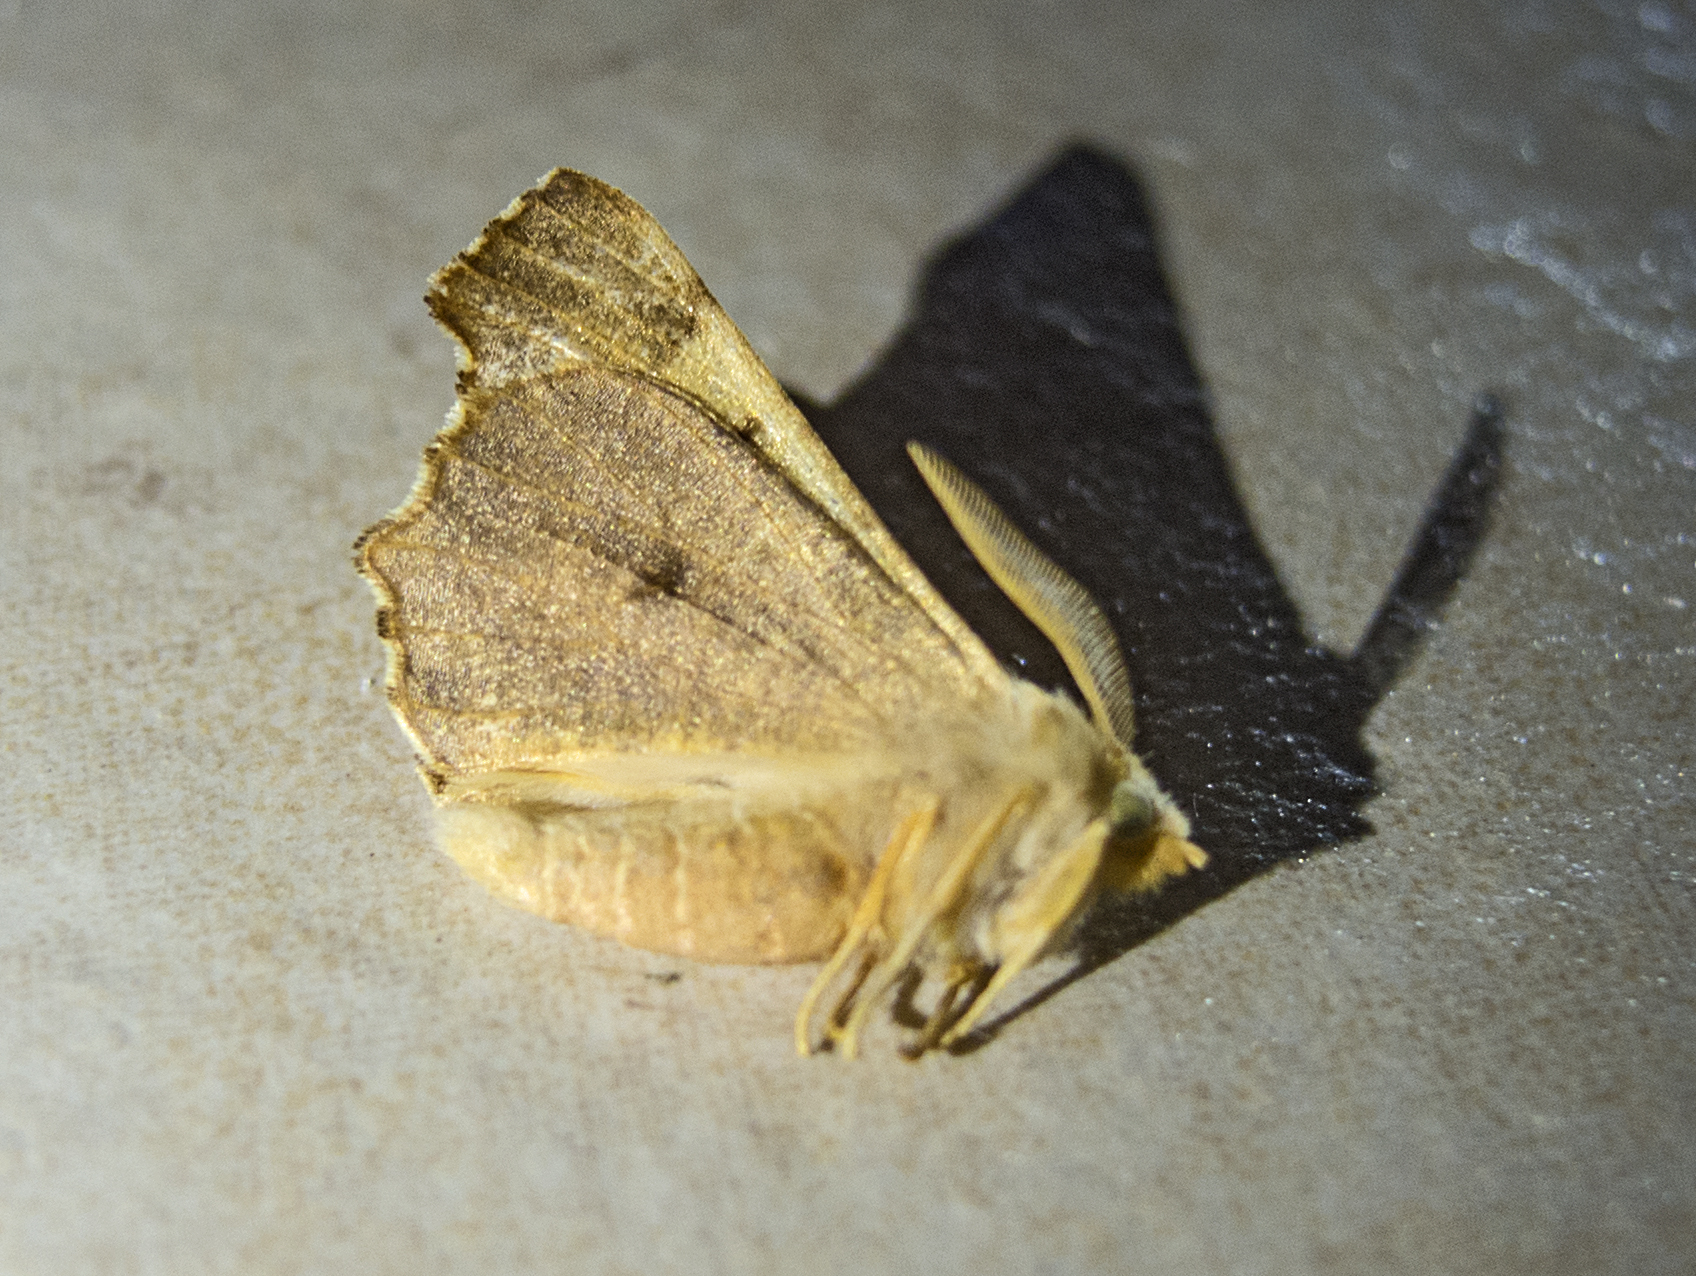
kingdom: Animalia
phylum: Arthropoda
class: Insecta
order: Lepidoptera
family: Geometridae
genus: Ennomos
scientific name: Ennomos fuscantaria
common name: Dusky thorn
